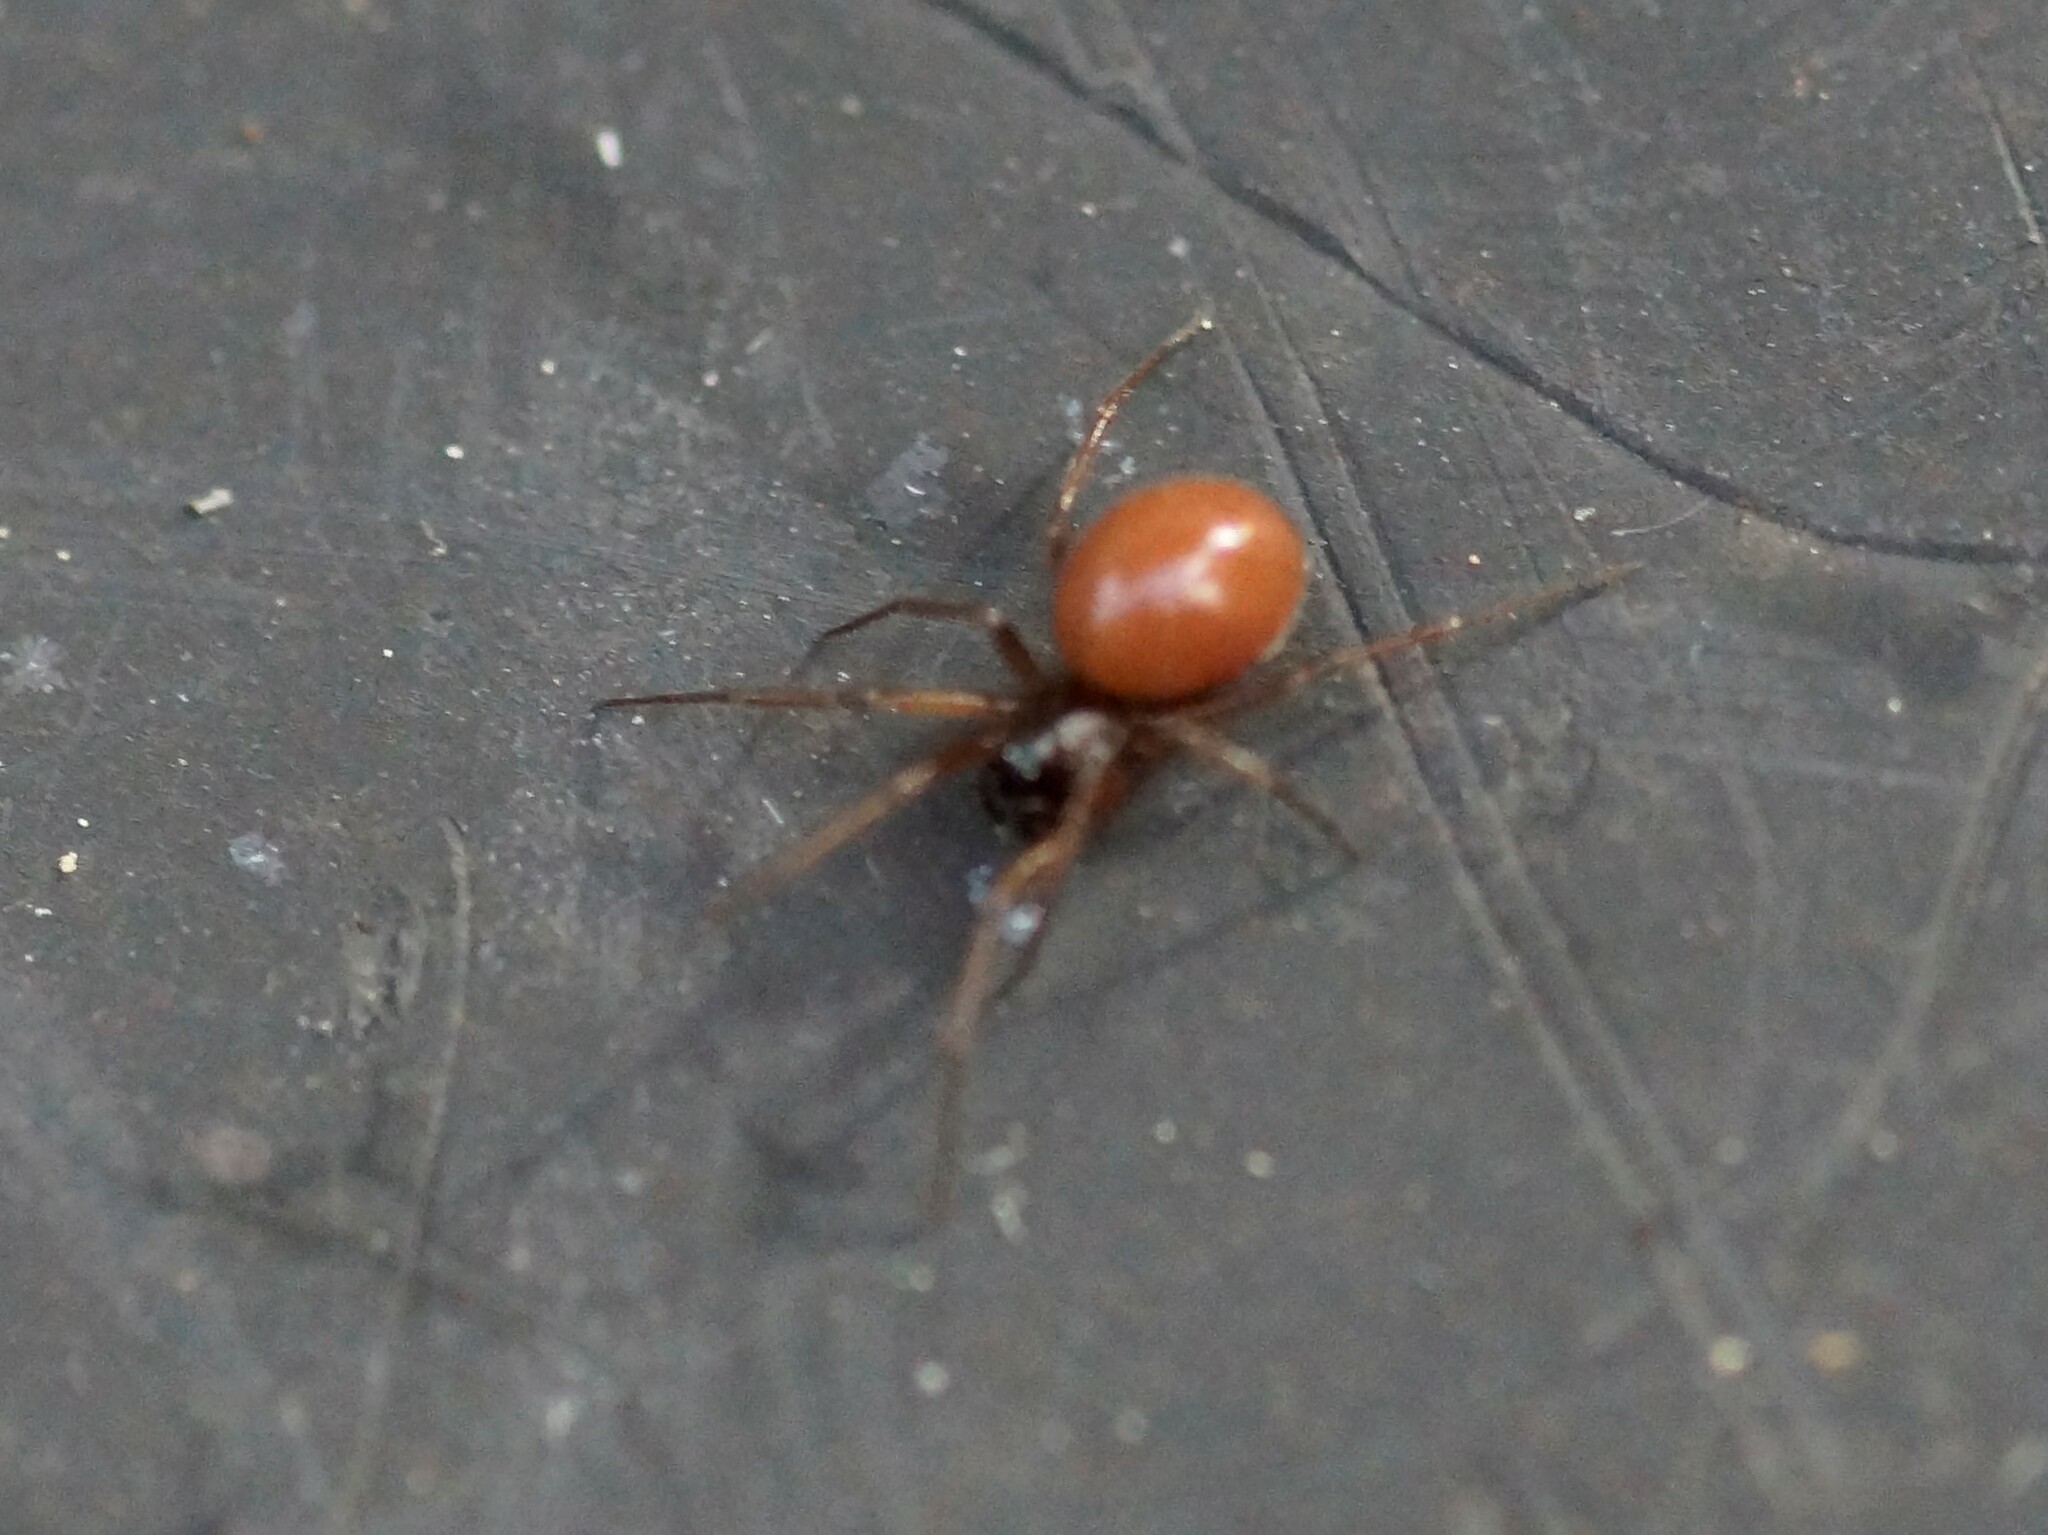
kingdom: Animalia
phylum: Arthropoda
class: Arachnida
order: Araneae
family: Linyphiidae
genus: Ostearius
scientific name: Ostearius melanopygius
